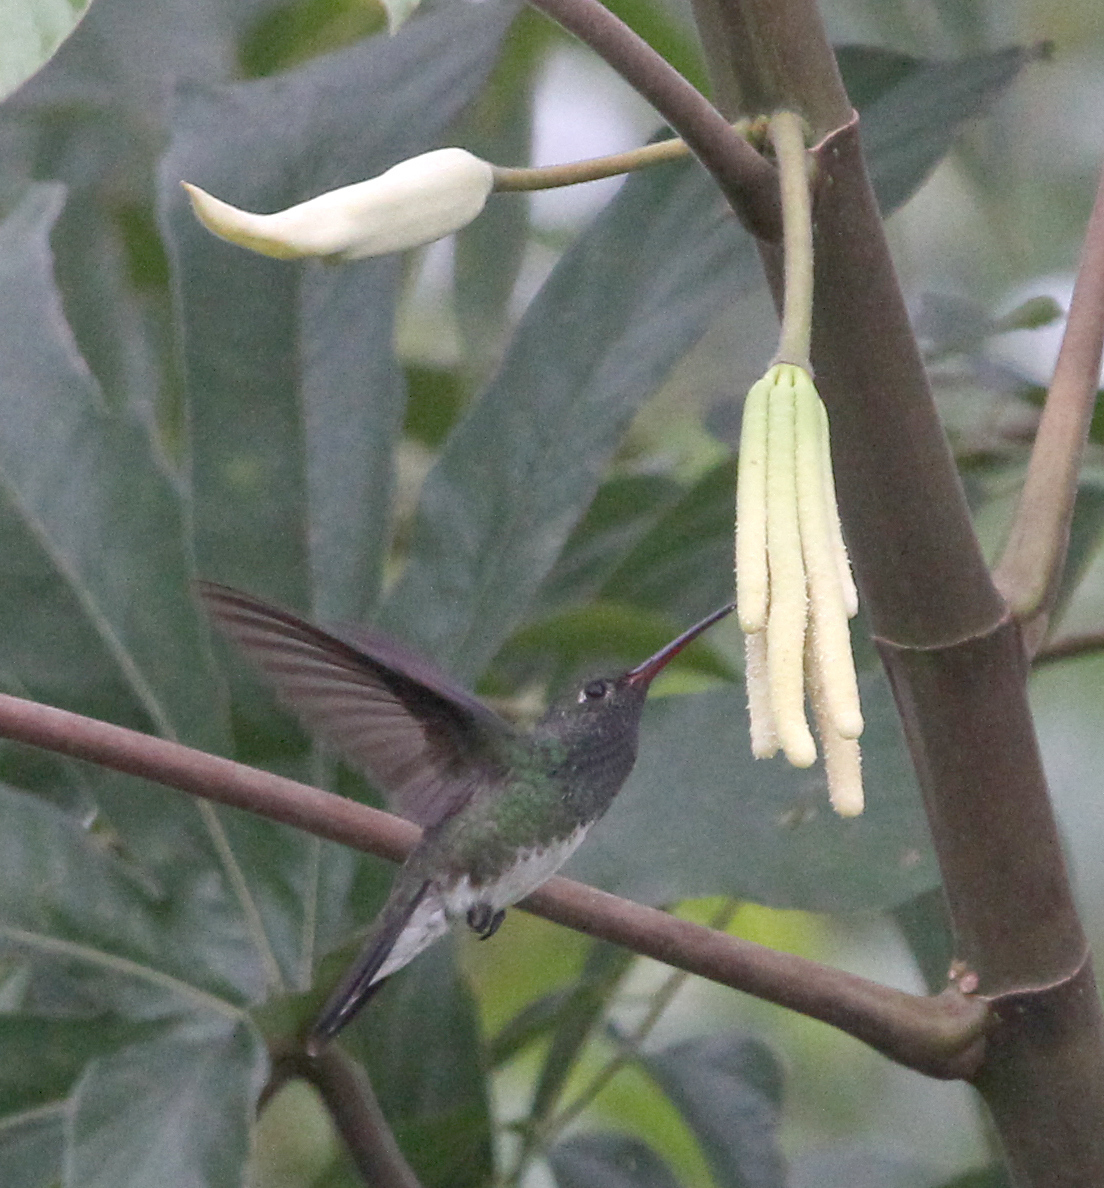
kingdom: Animalia
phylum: Chordata
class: Aves
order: Apodiformes
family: Trochilidae
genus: Chrysuronia
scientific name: Chrysuronia versicolor
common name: Versicolored emerald
